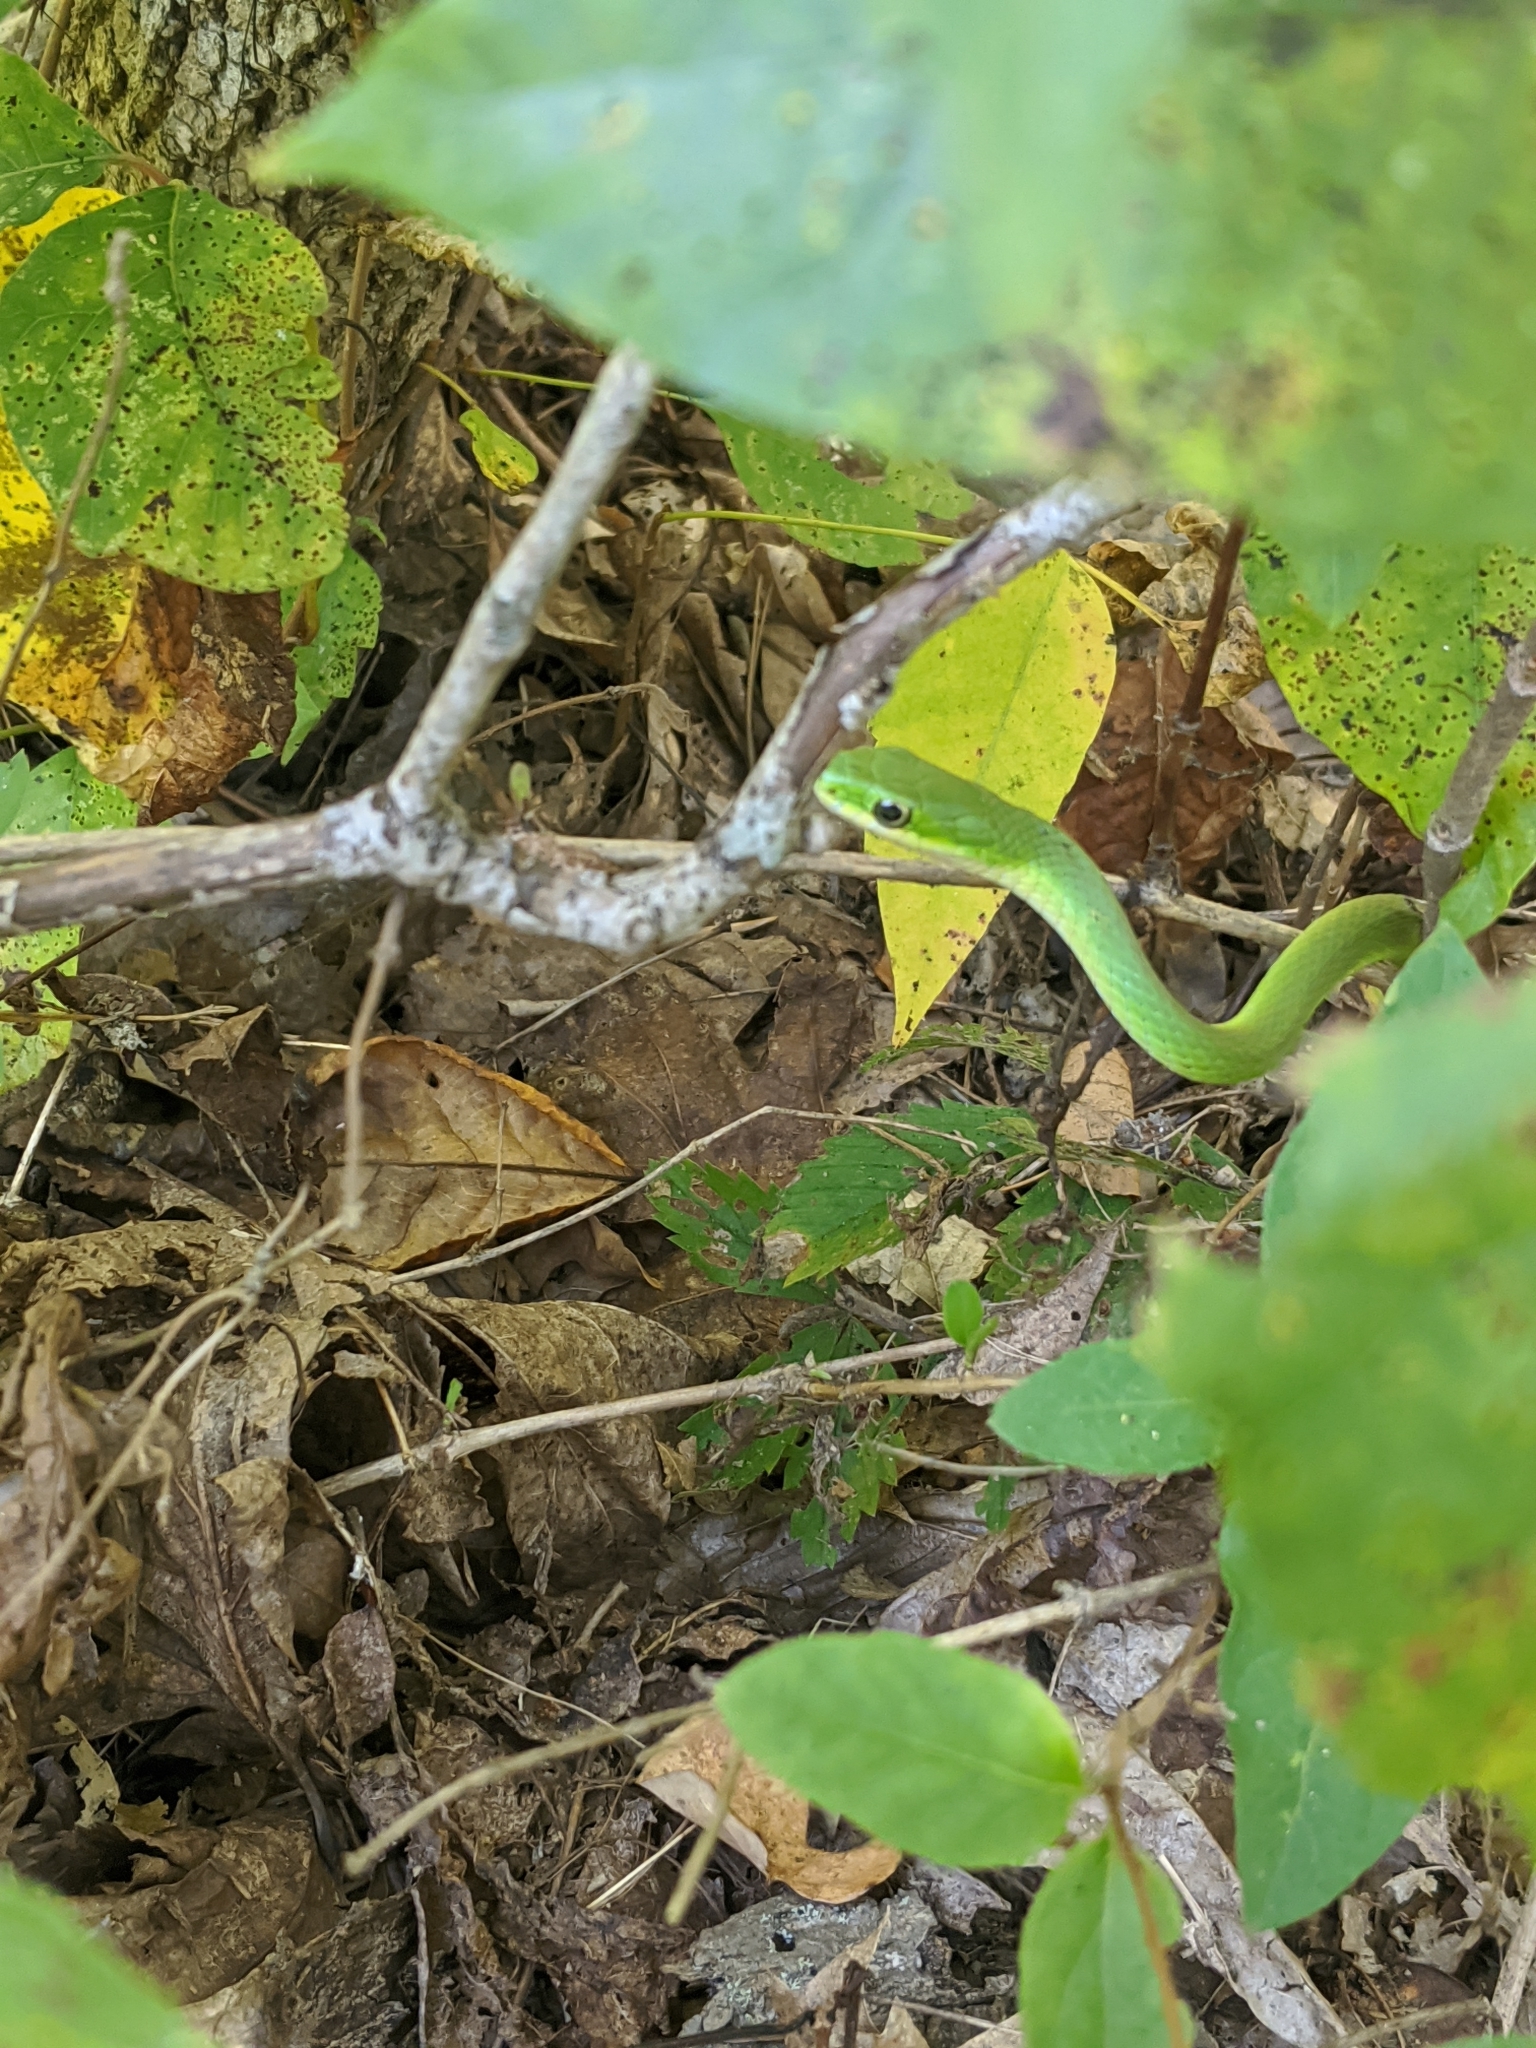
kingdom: Animalia
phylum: Chordata
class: Squamata
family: Colubridae
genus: Opheodrys
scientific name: Opheodrys aestivus
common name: Rough greensnake
